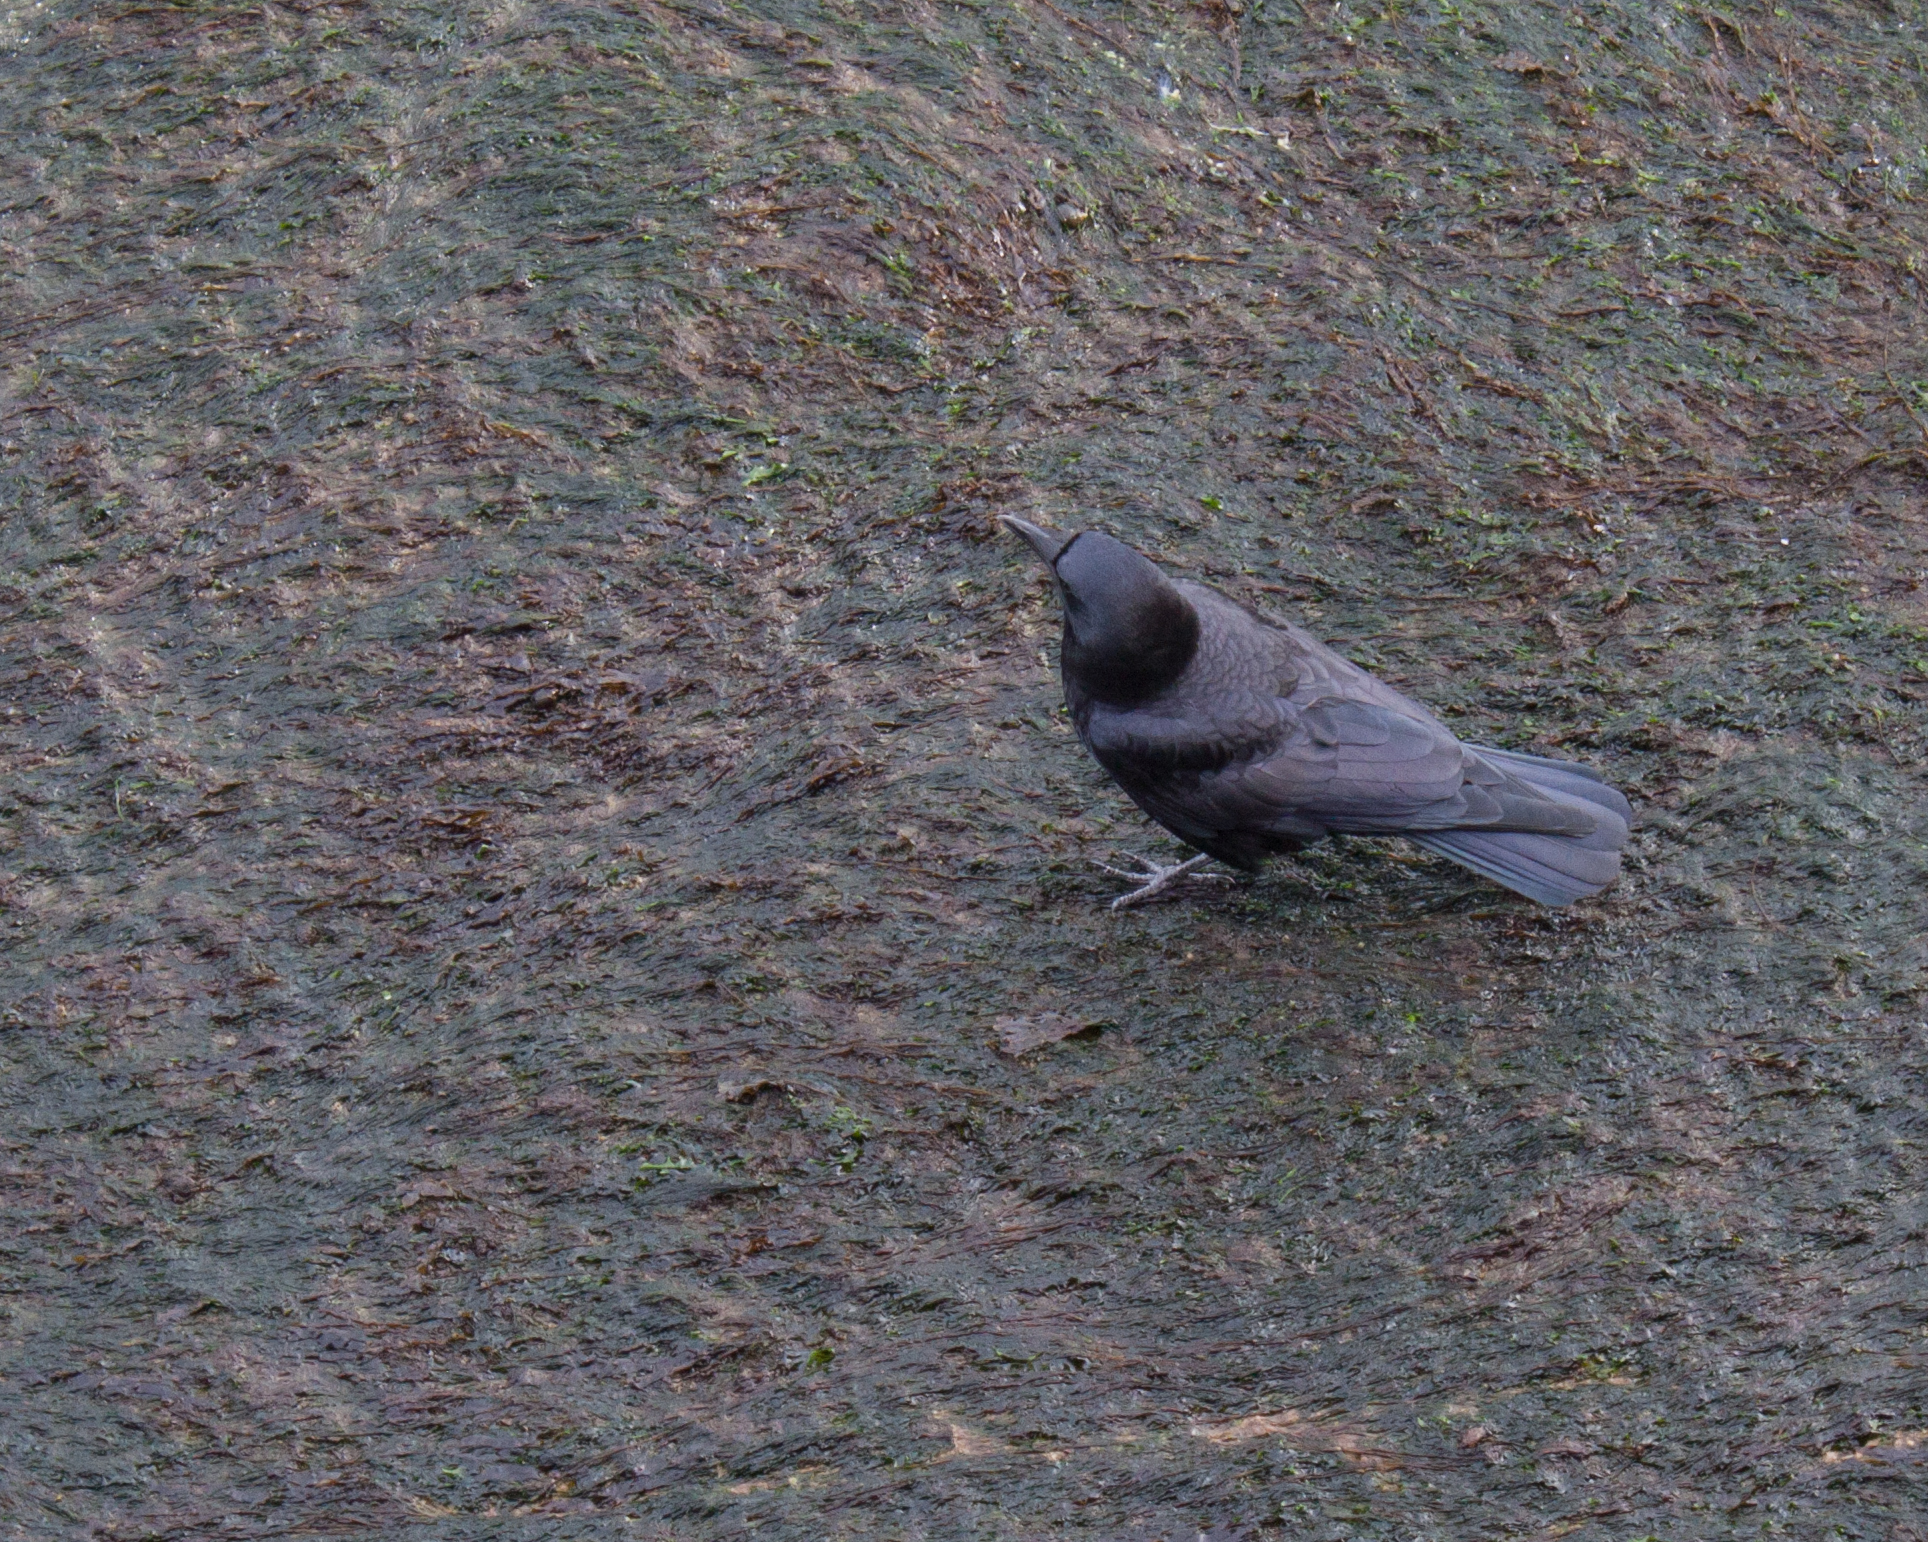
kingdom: Animalia
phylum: Chordata
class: Aves
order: Passeriformes
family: Corvidae
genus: Corvus
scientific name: Corvus brachyrhynchos
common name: American crow
